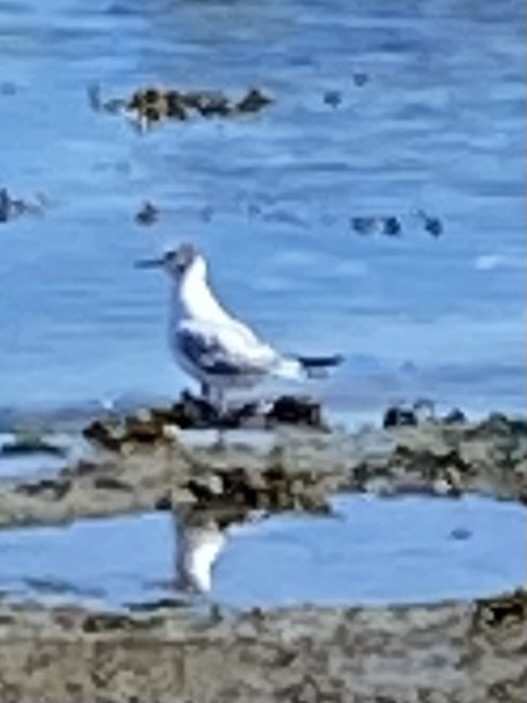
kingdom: Animalia
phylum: Chordata
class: Aves
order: Charadriiformes
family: Laridae
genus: Chroicocephalus
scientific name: Chroicocephalus philadelphia
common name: Bonaparte's gull
